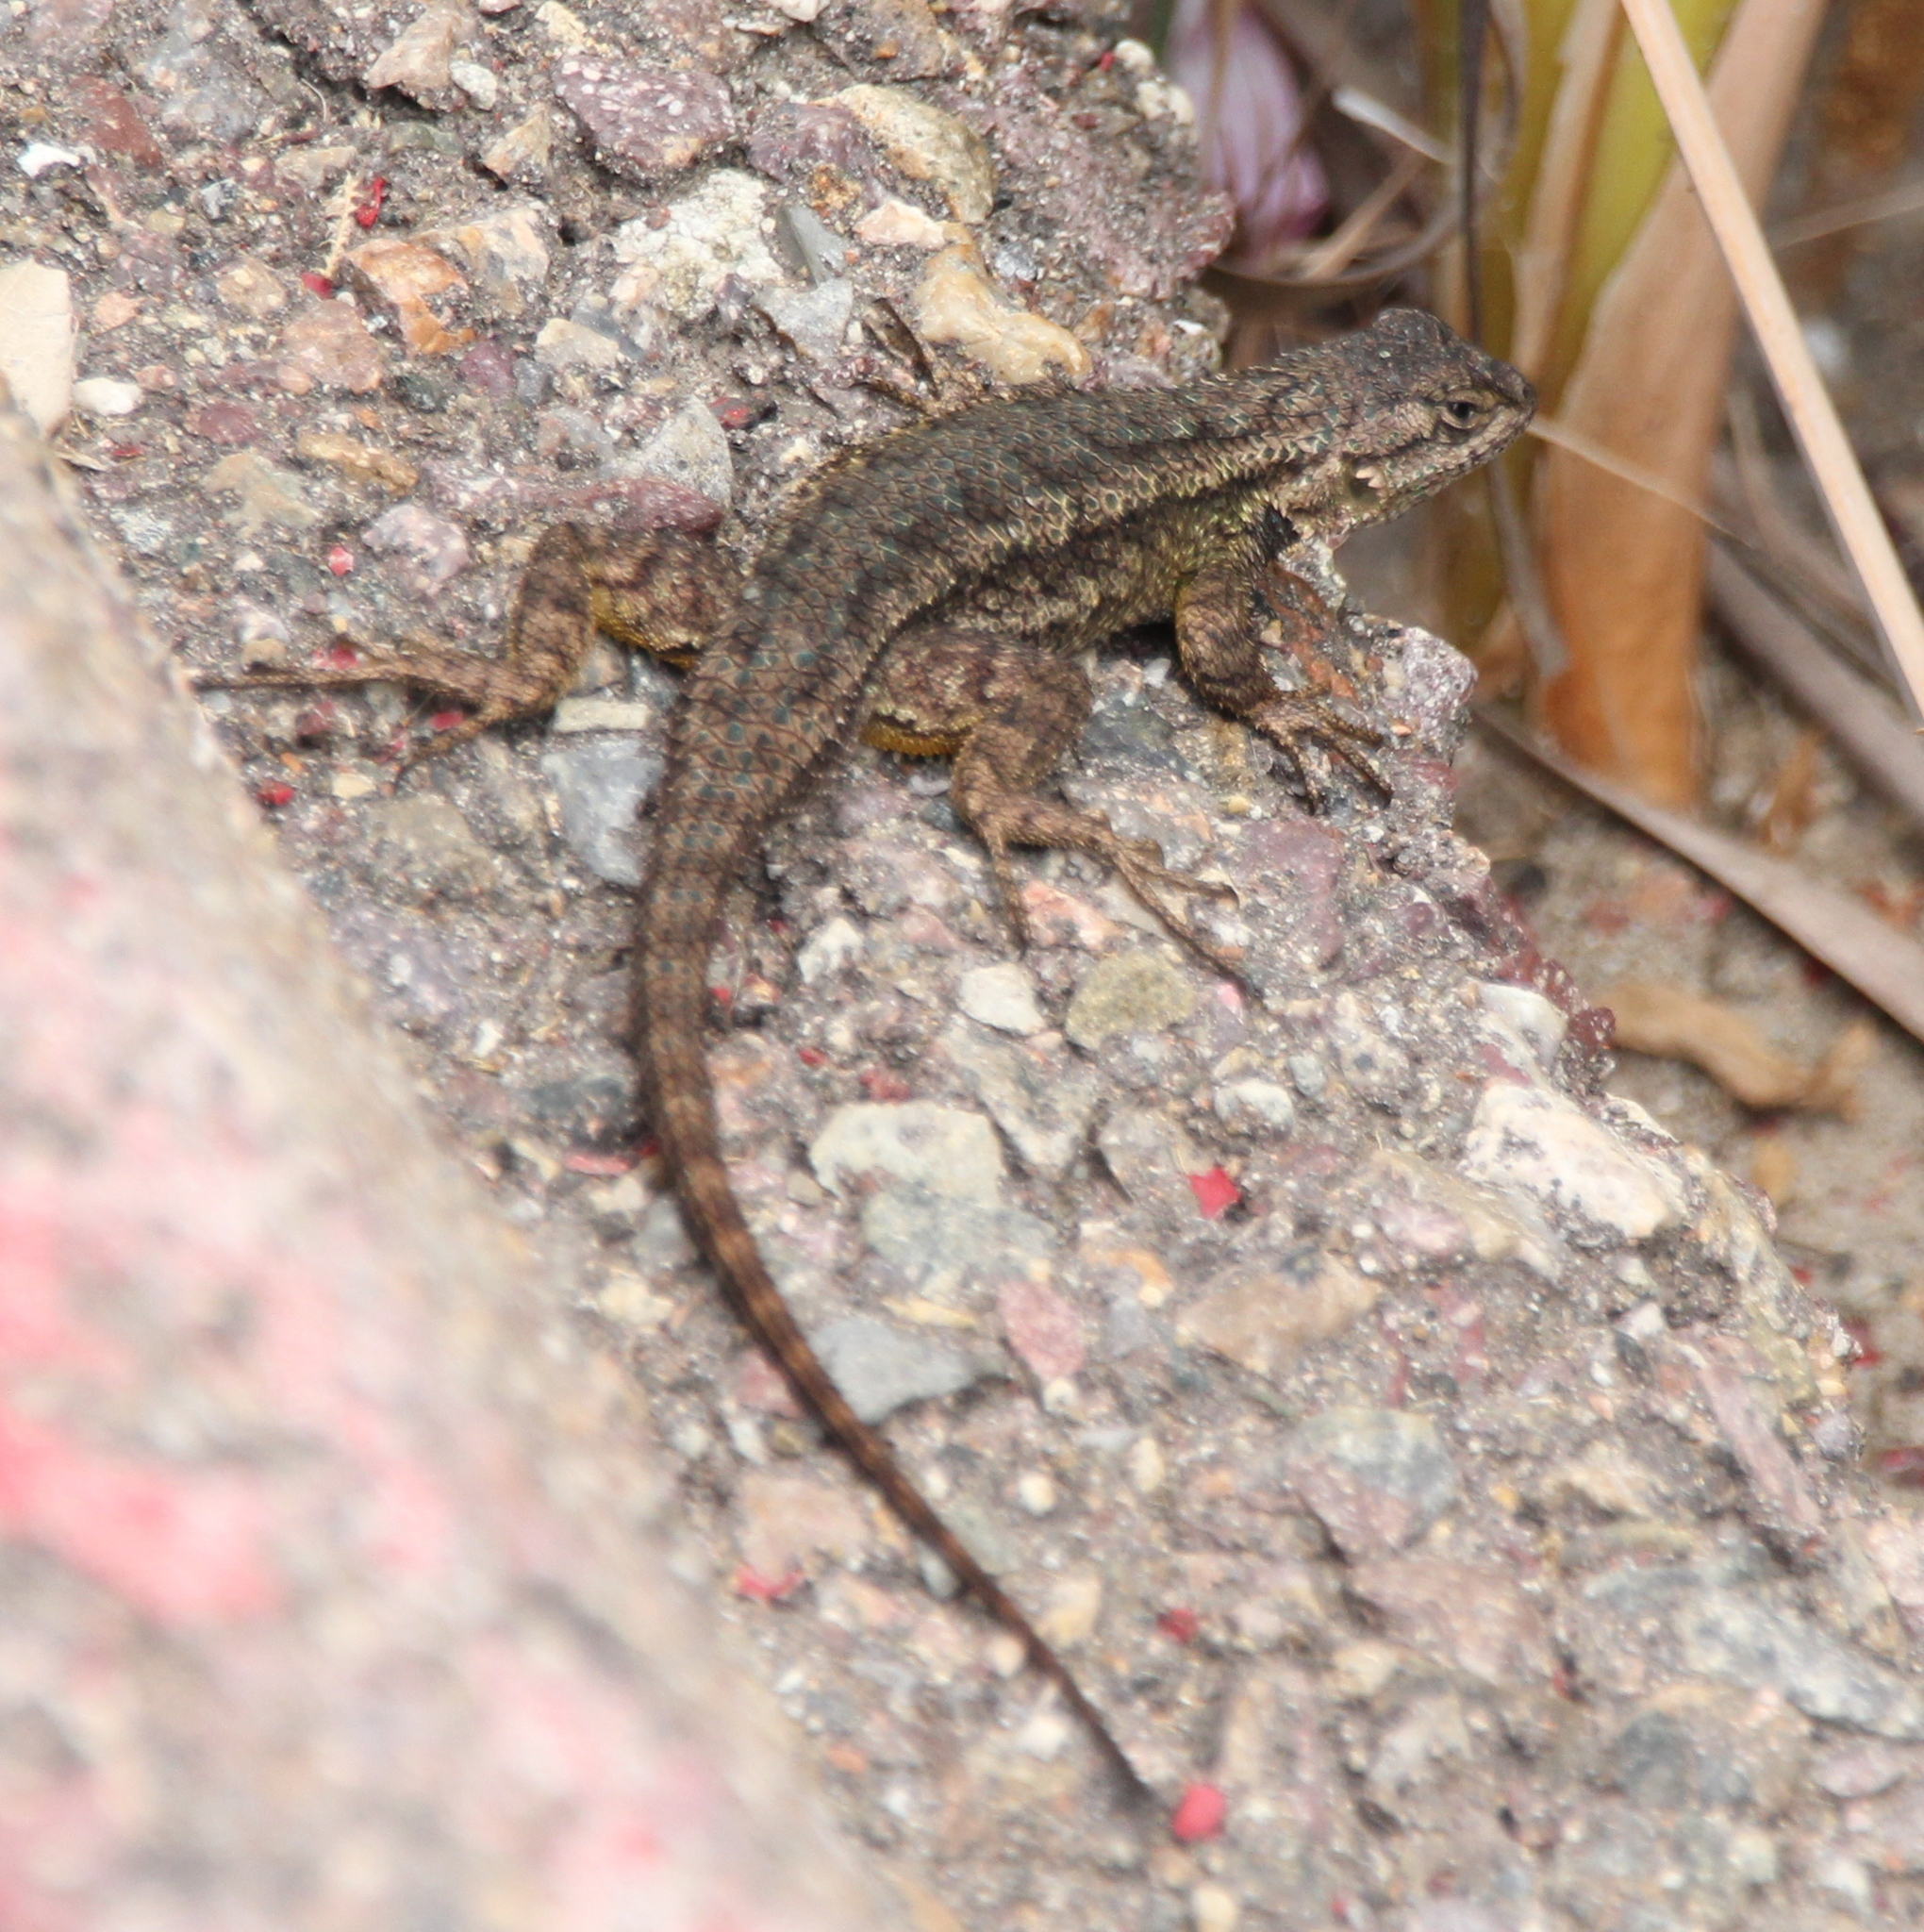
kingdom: Animalia
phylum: Chordata
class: Squamata
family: Phrynosomatidae
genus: Sceloporus
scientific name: Sceloporus occidentalis
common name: Western fence lizard
